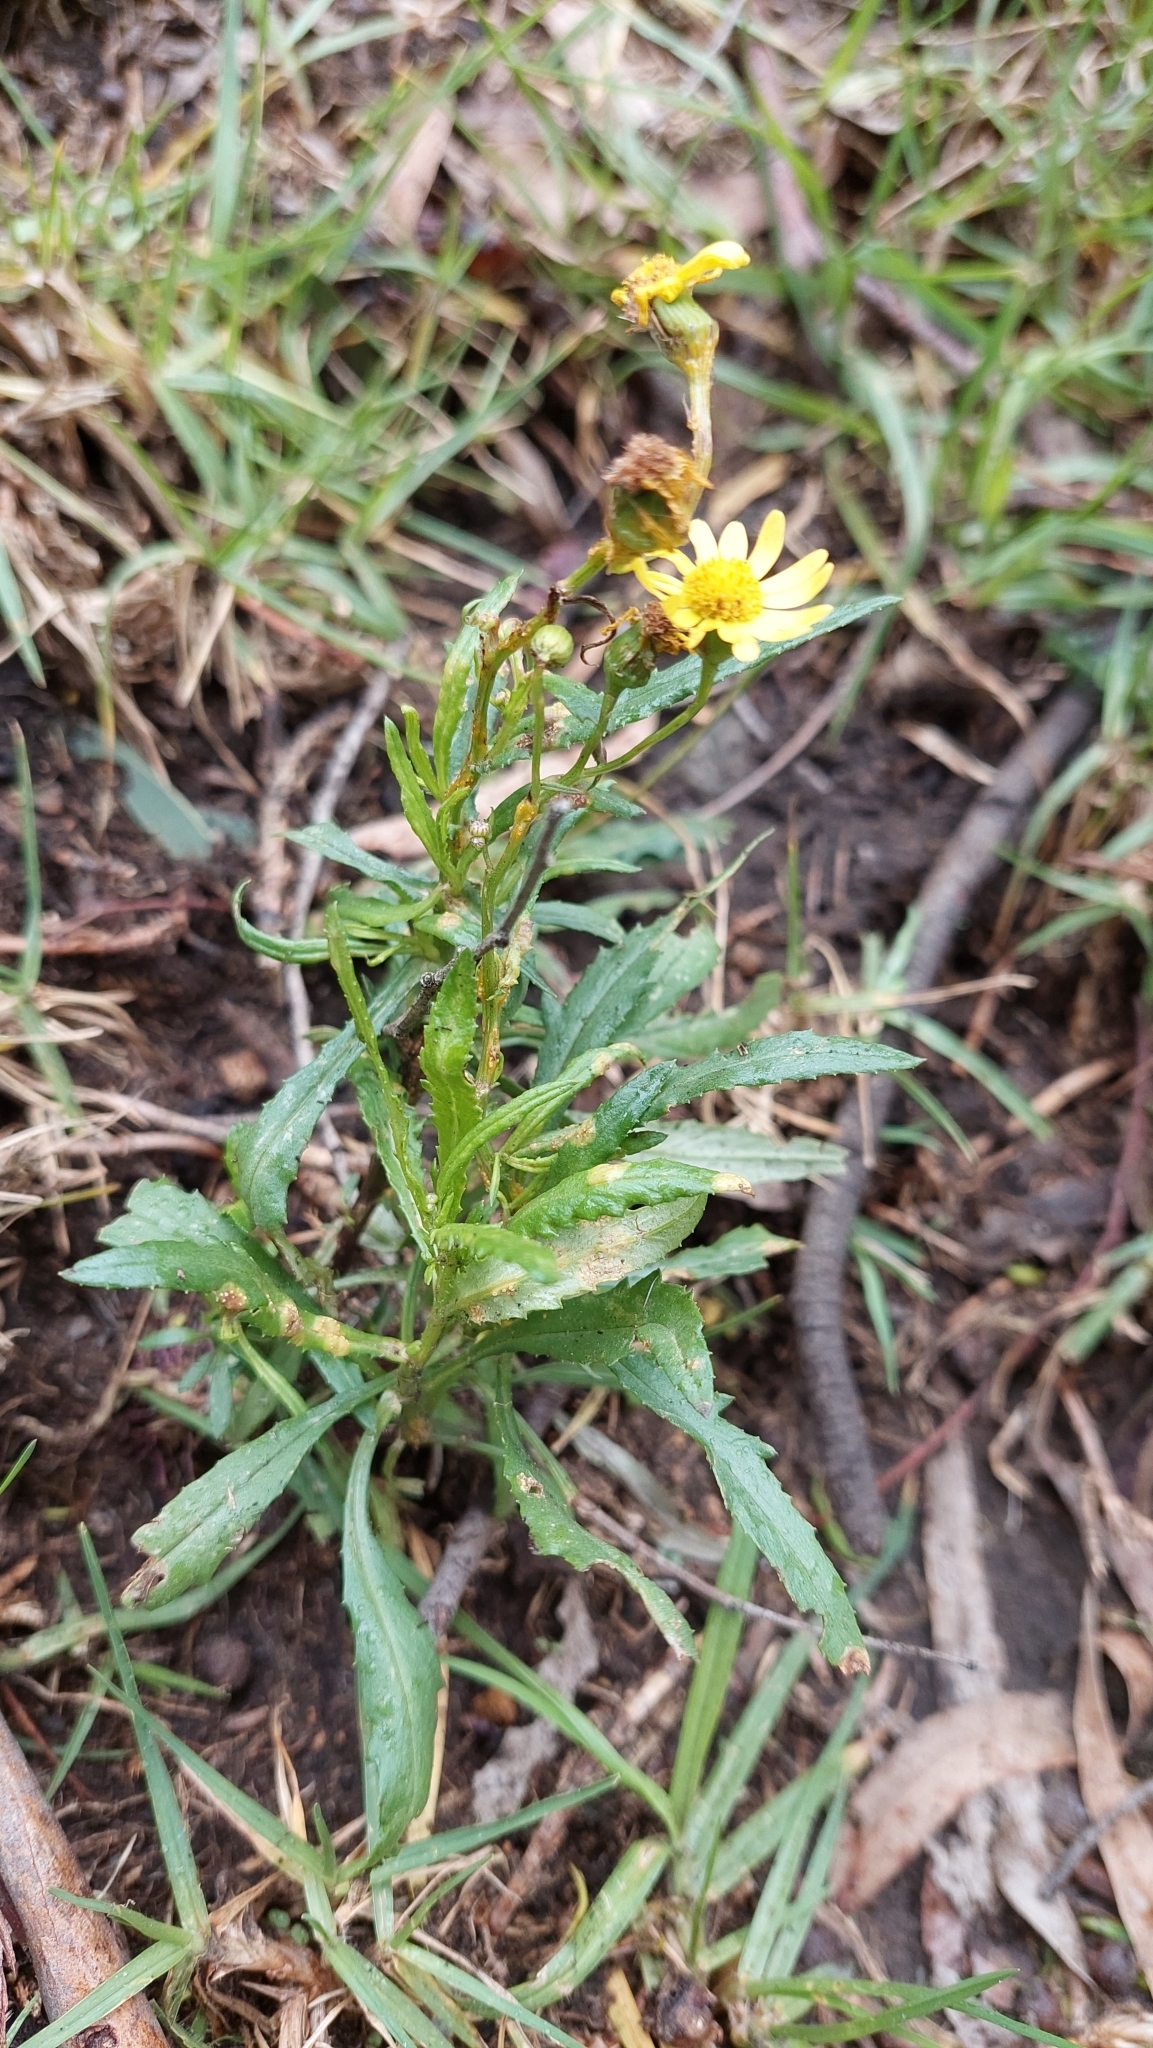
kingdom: Plantae
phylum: Tracheophyta
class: Magnoliopsida
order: Asterales
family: Asteraceae
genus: Senecio
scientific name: Senecio madagascariensis
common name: Madagascar ragwort
